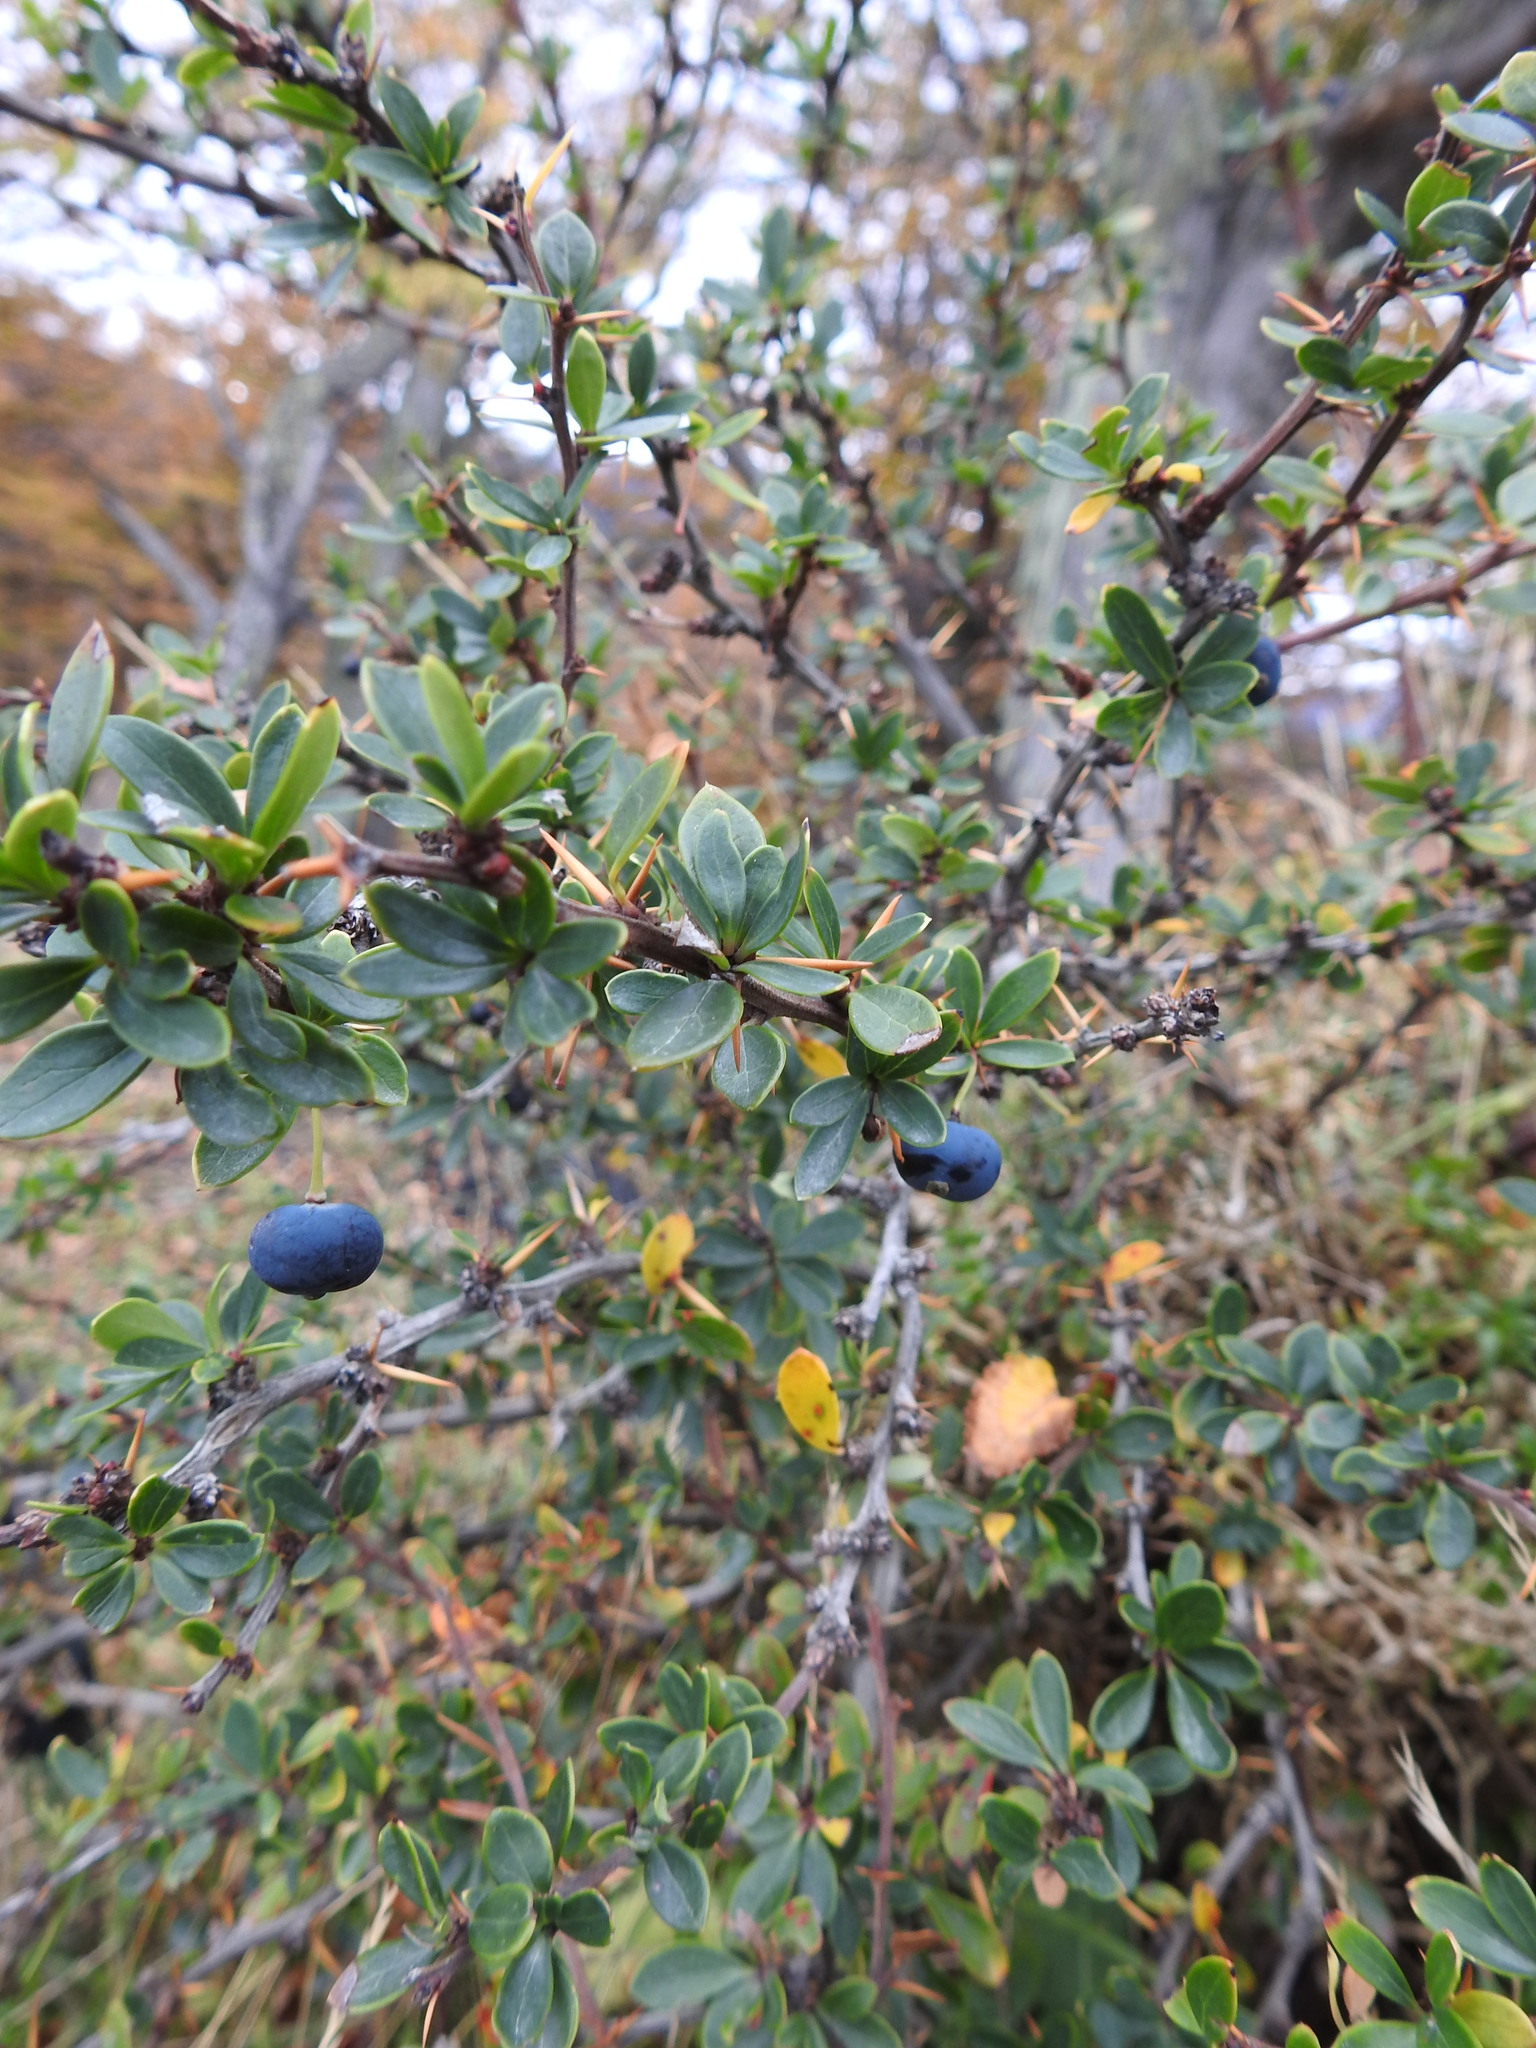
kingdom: Plantae
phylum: Tracheophyta
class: Magnoliopsida
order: Ranunculales
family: Berberidaceae
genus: Berberis
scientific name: Berberis microphylla
